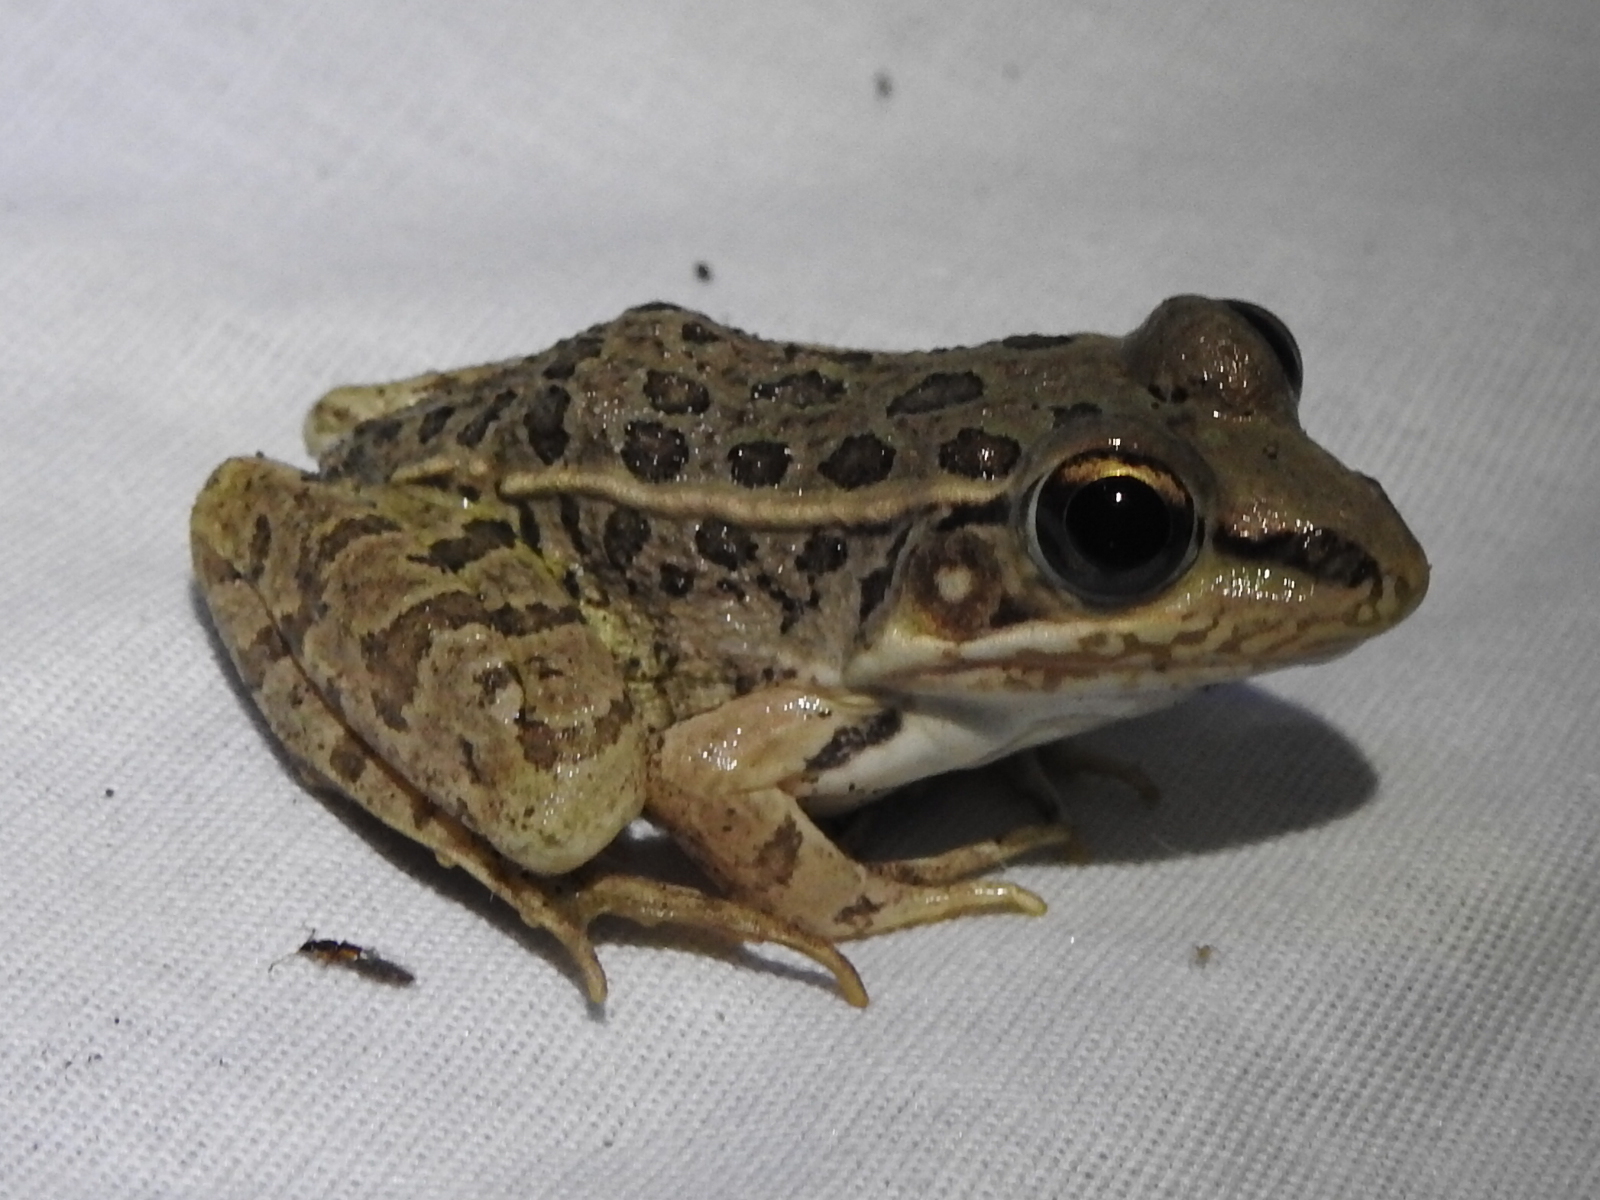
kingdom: Animalia
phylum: Chordata
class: Amphibia
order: Anura
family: Ranidae
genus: Lithobates
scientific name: Lithobates berlandieri
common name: Rio grande leopard frog
